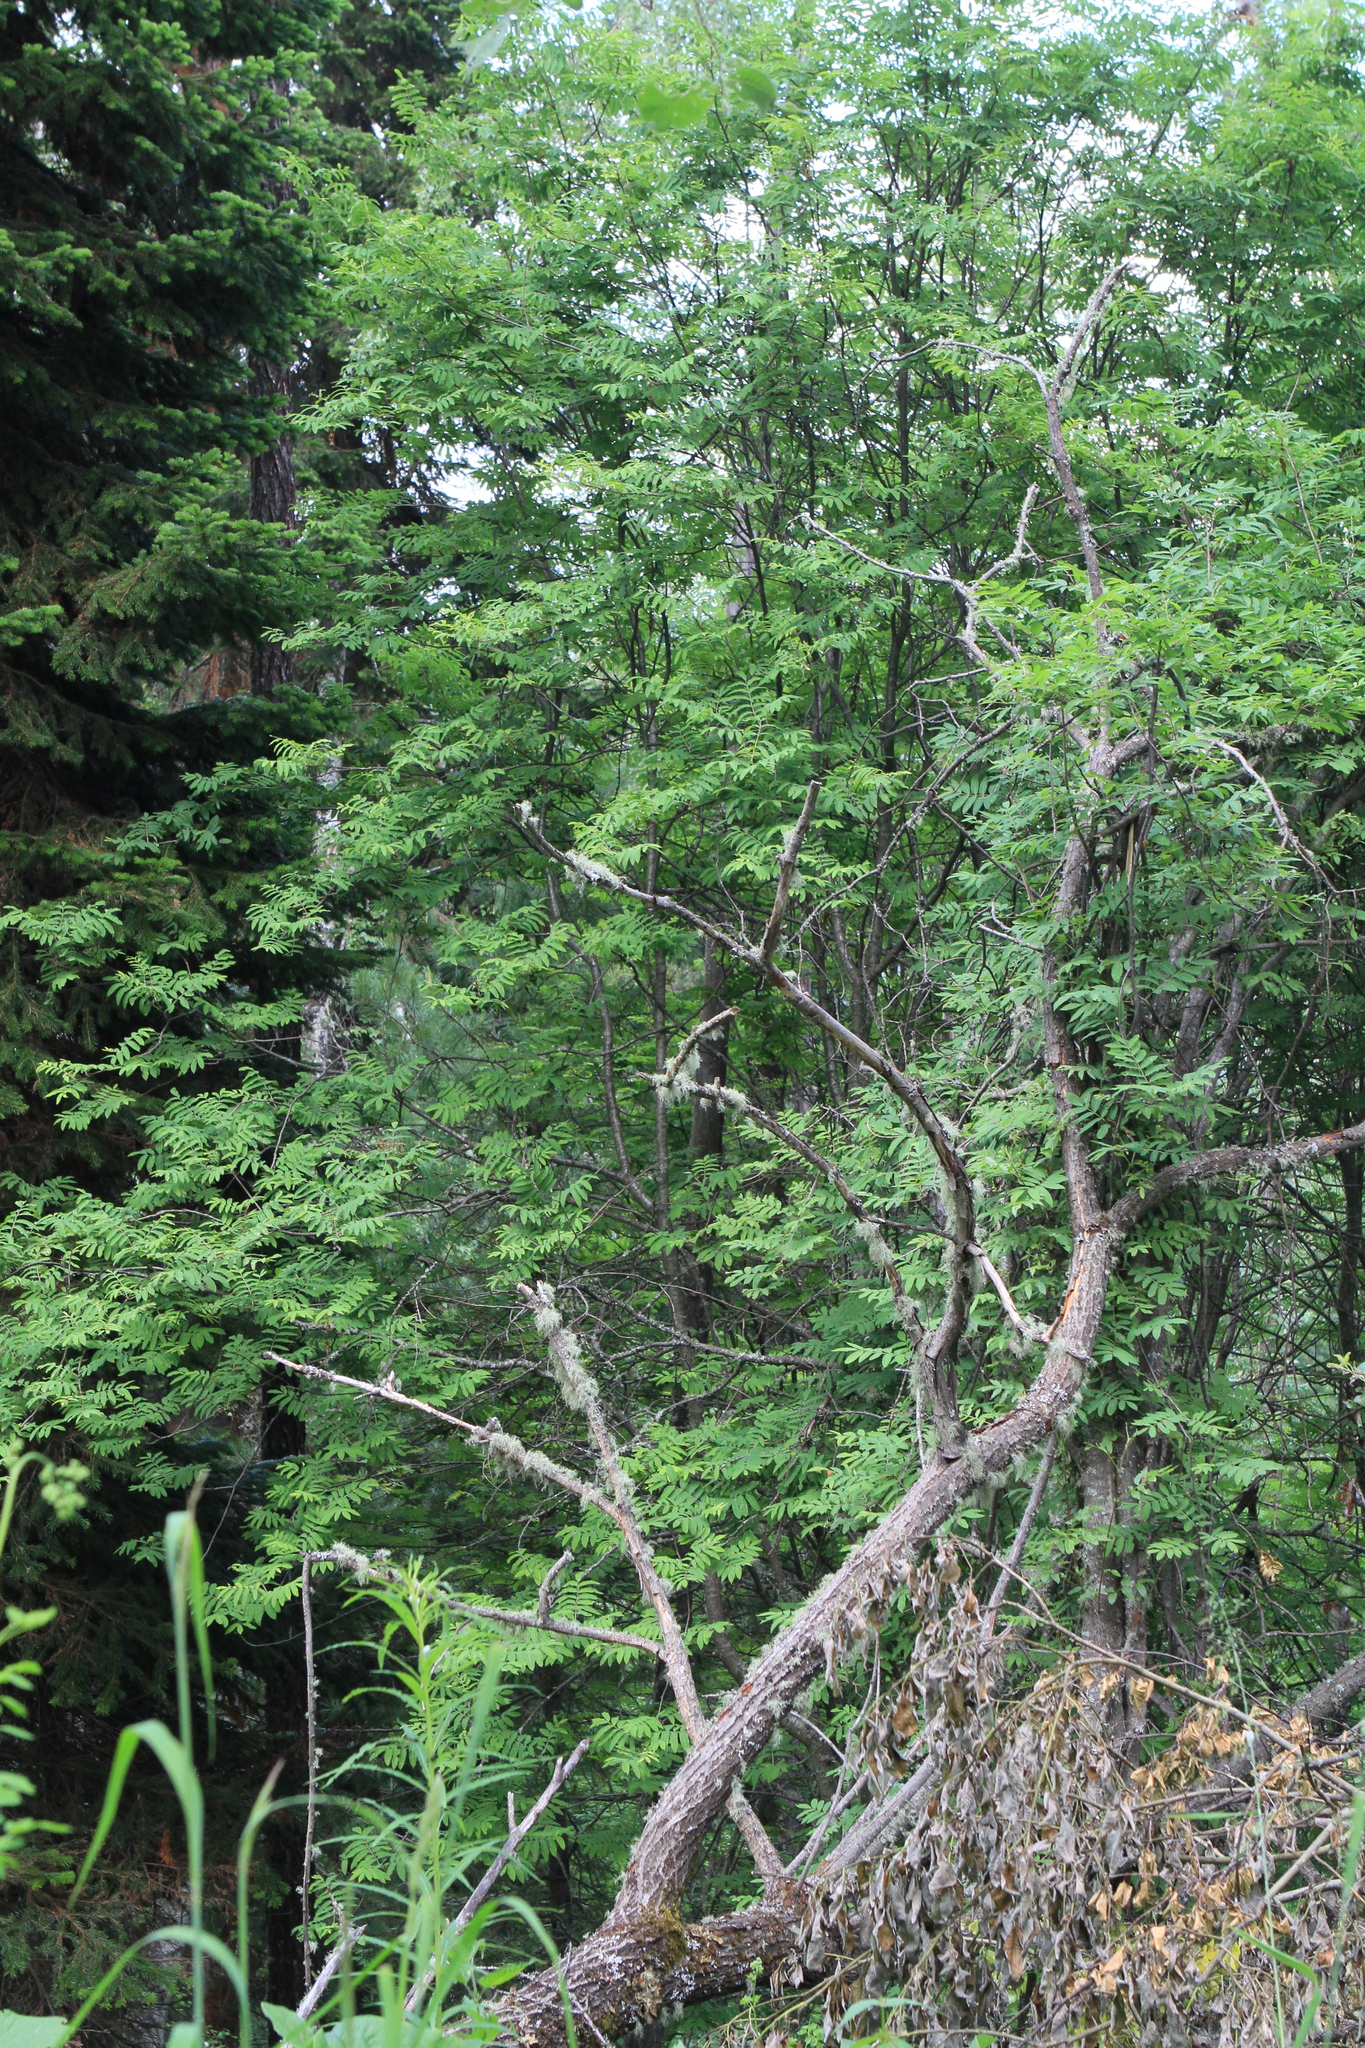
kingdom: Plantae
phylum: Tracheophyta
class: Magnoliopsida
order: Rosales
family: Rosaceae
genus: Sorbus
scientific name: Sorbus aucuparia
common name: Rowan
